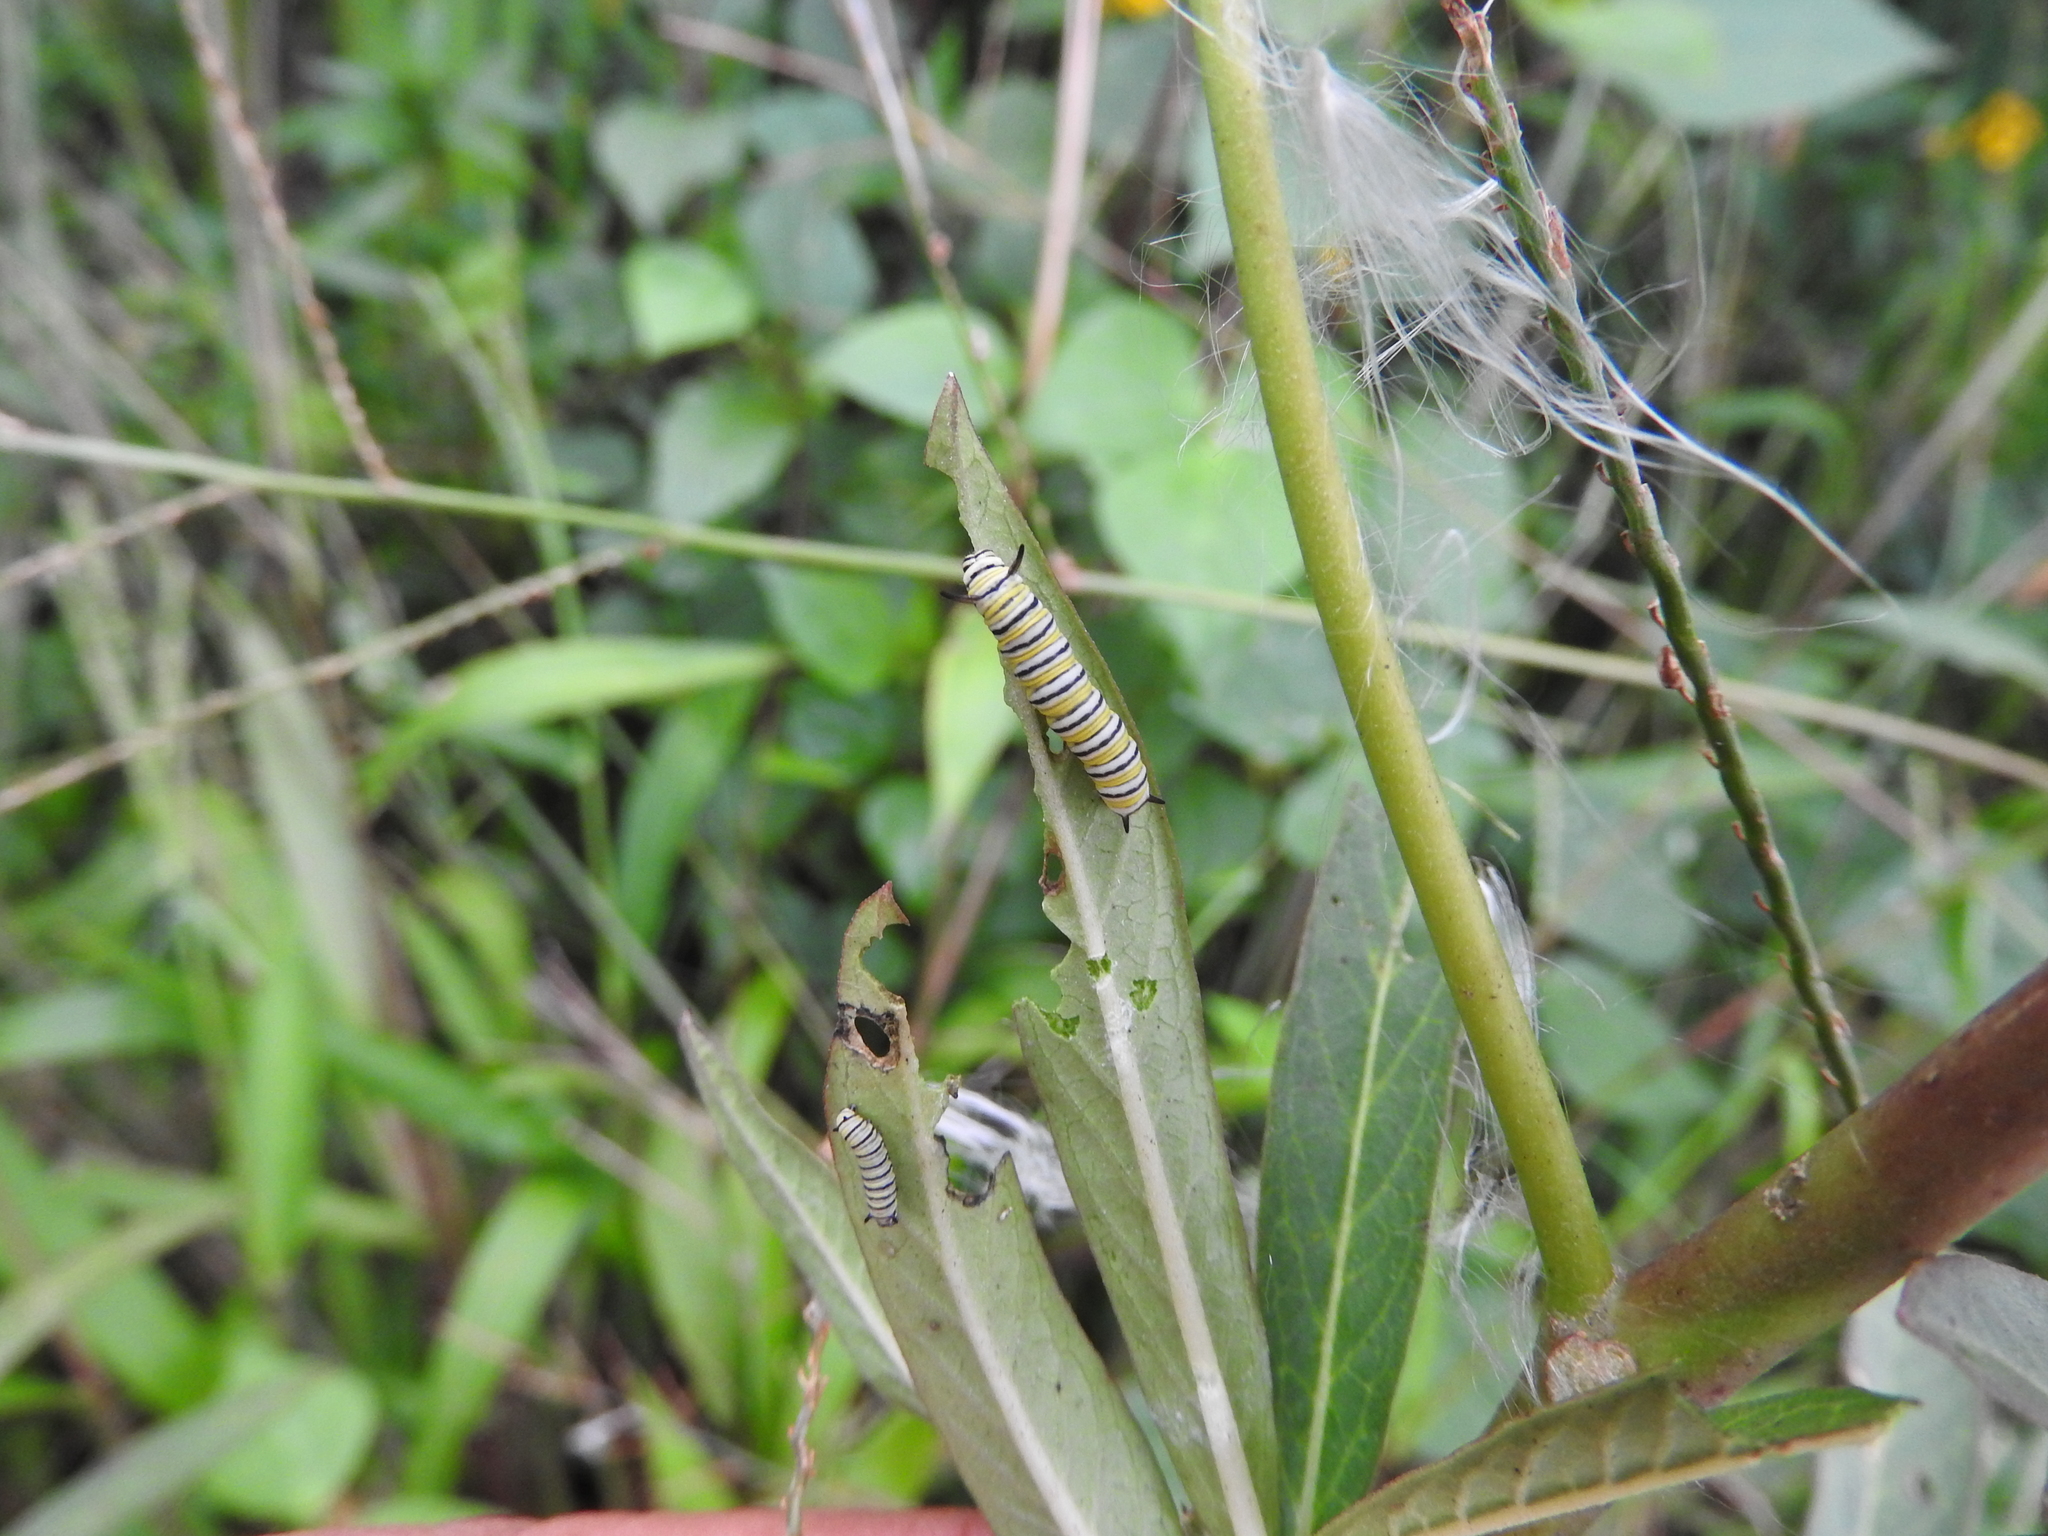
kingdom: Animalia
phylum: Arthropoda
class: Insecta
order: Lepidoptera
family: Nymphalidae
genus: Danaus
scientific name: Danaus plexippus
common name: Monarch
